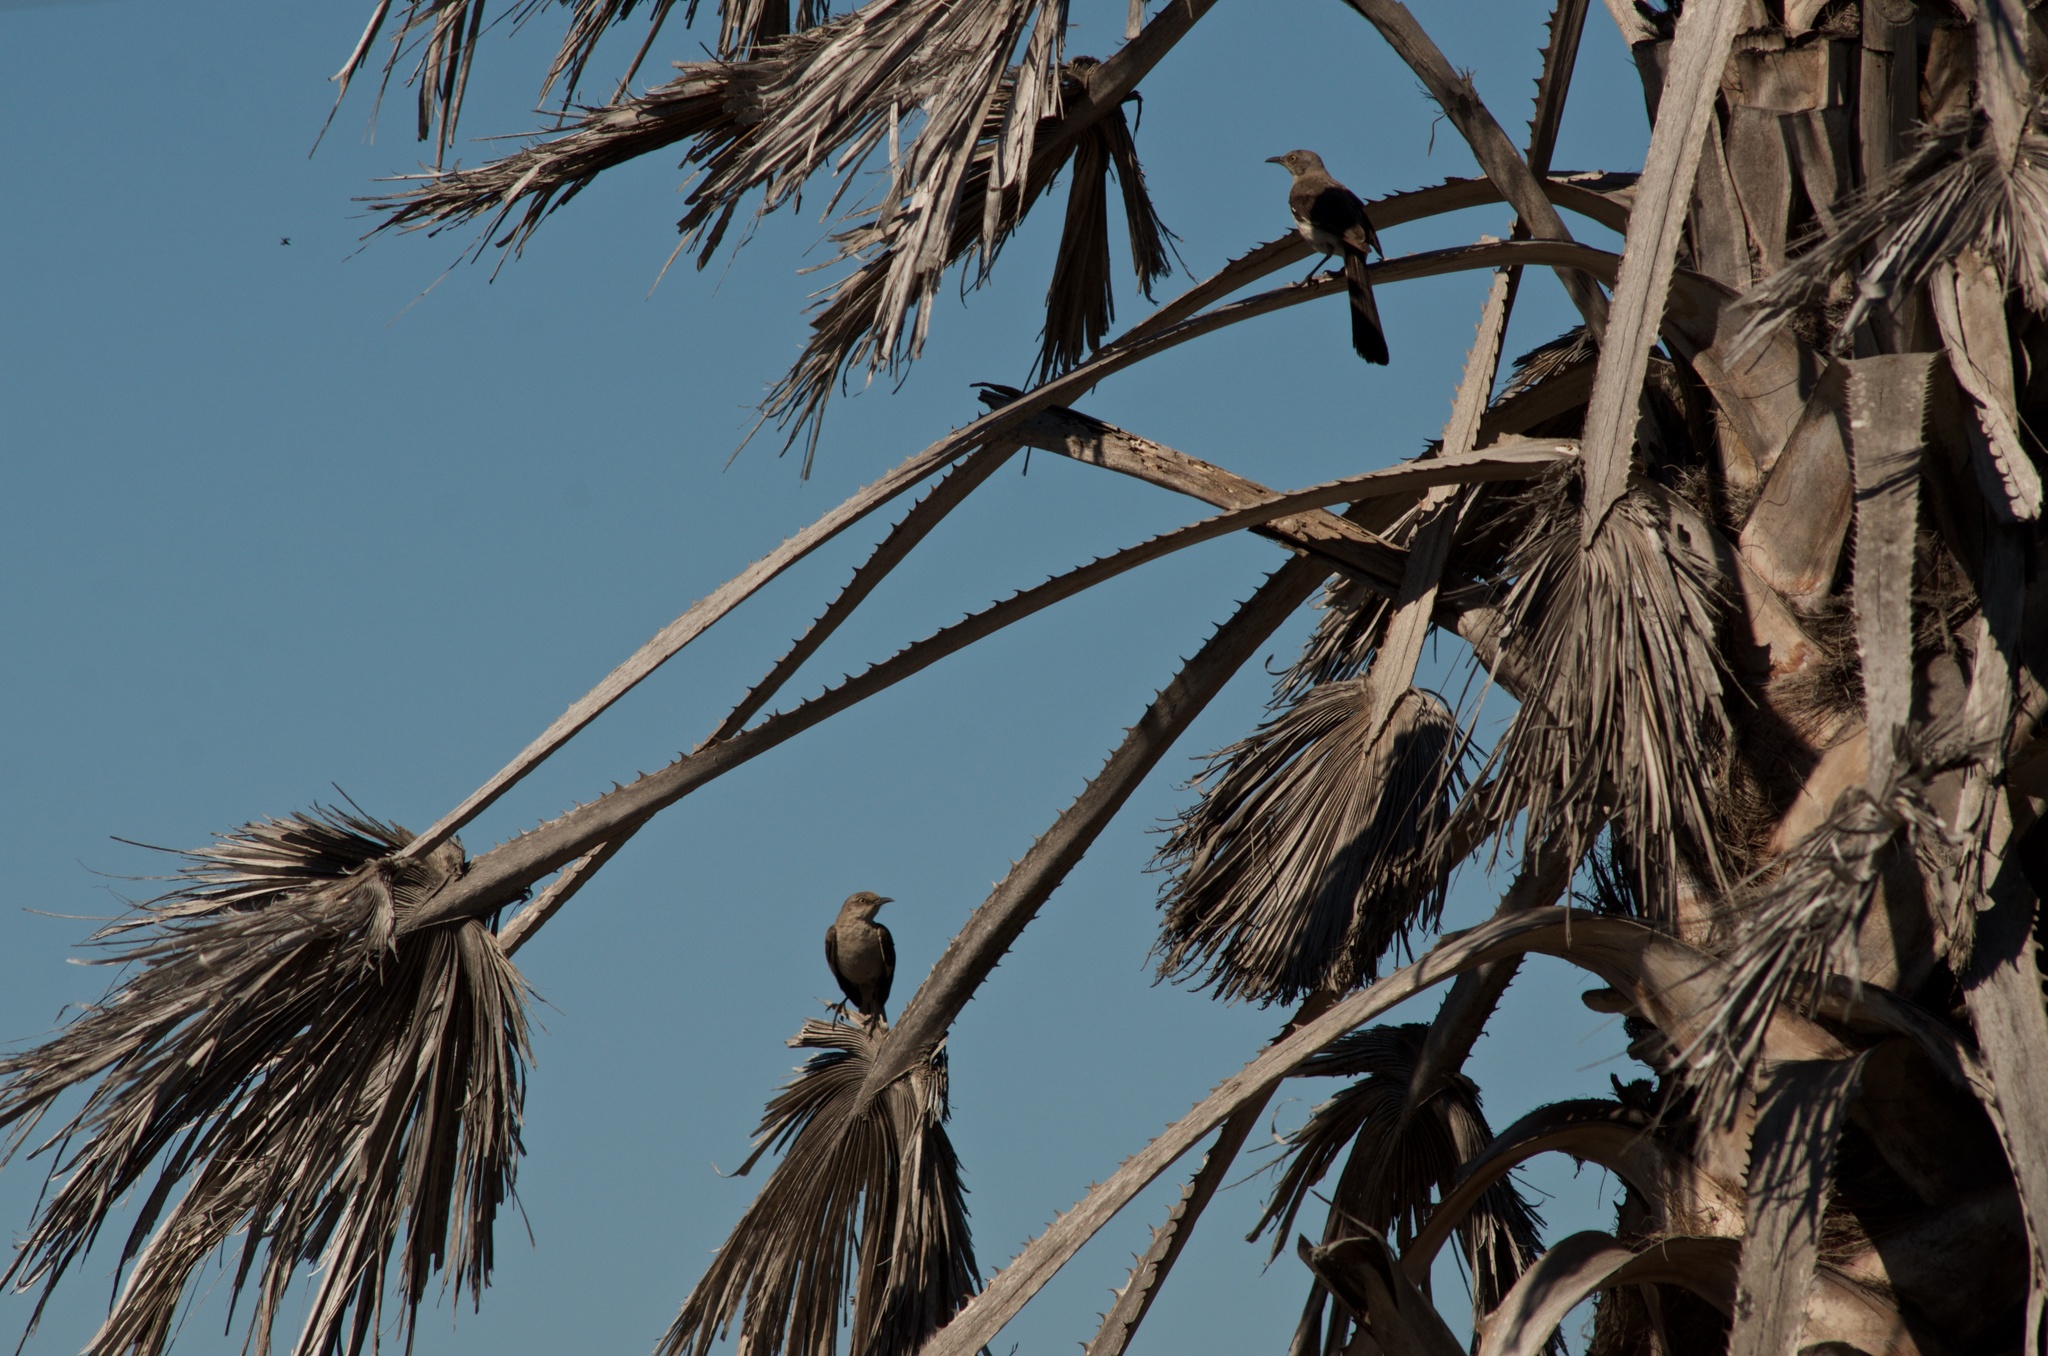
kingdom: Animalia
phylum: Chordata
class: Aves
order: Passeriformes
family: Mimidae
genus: Mimus
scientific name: Mimus polyglottos
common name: Northern mockingbird
